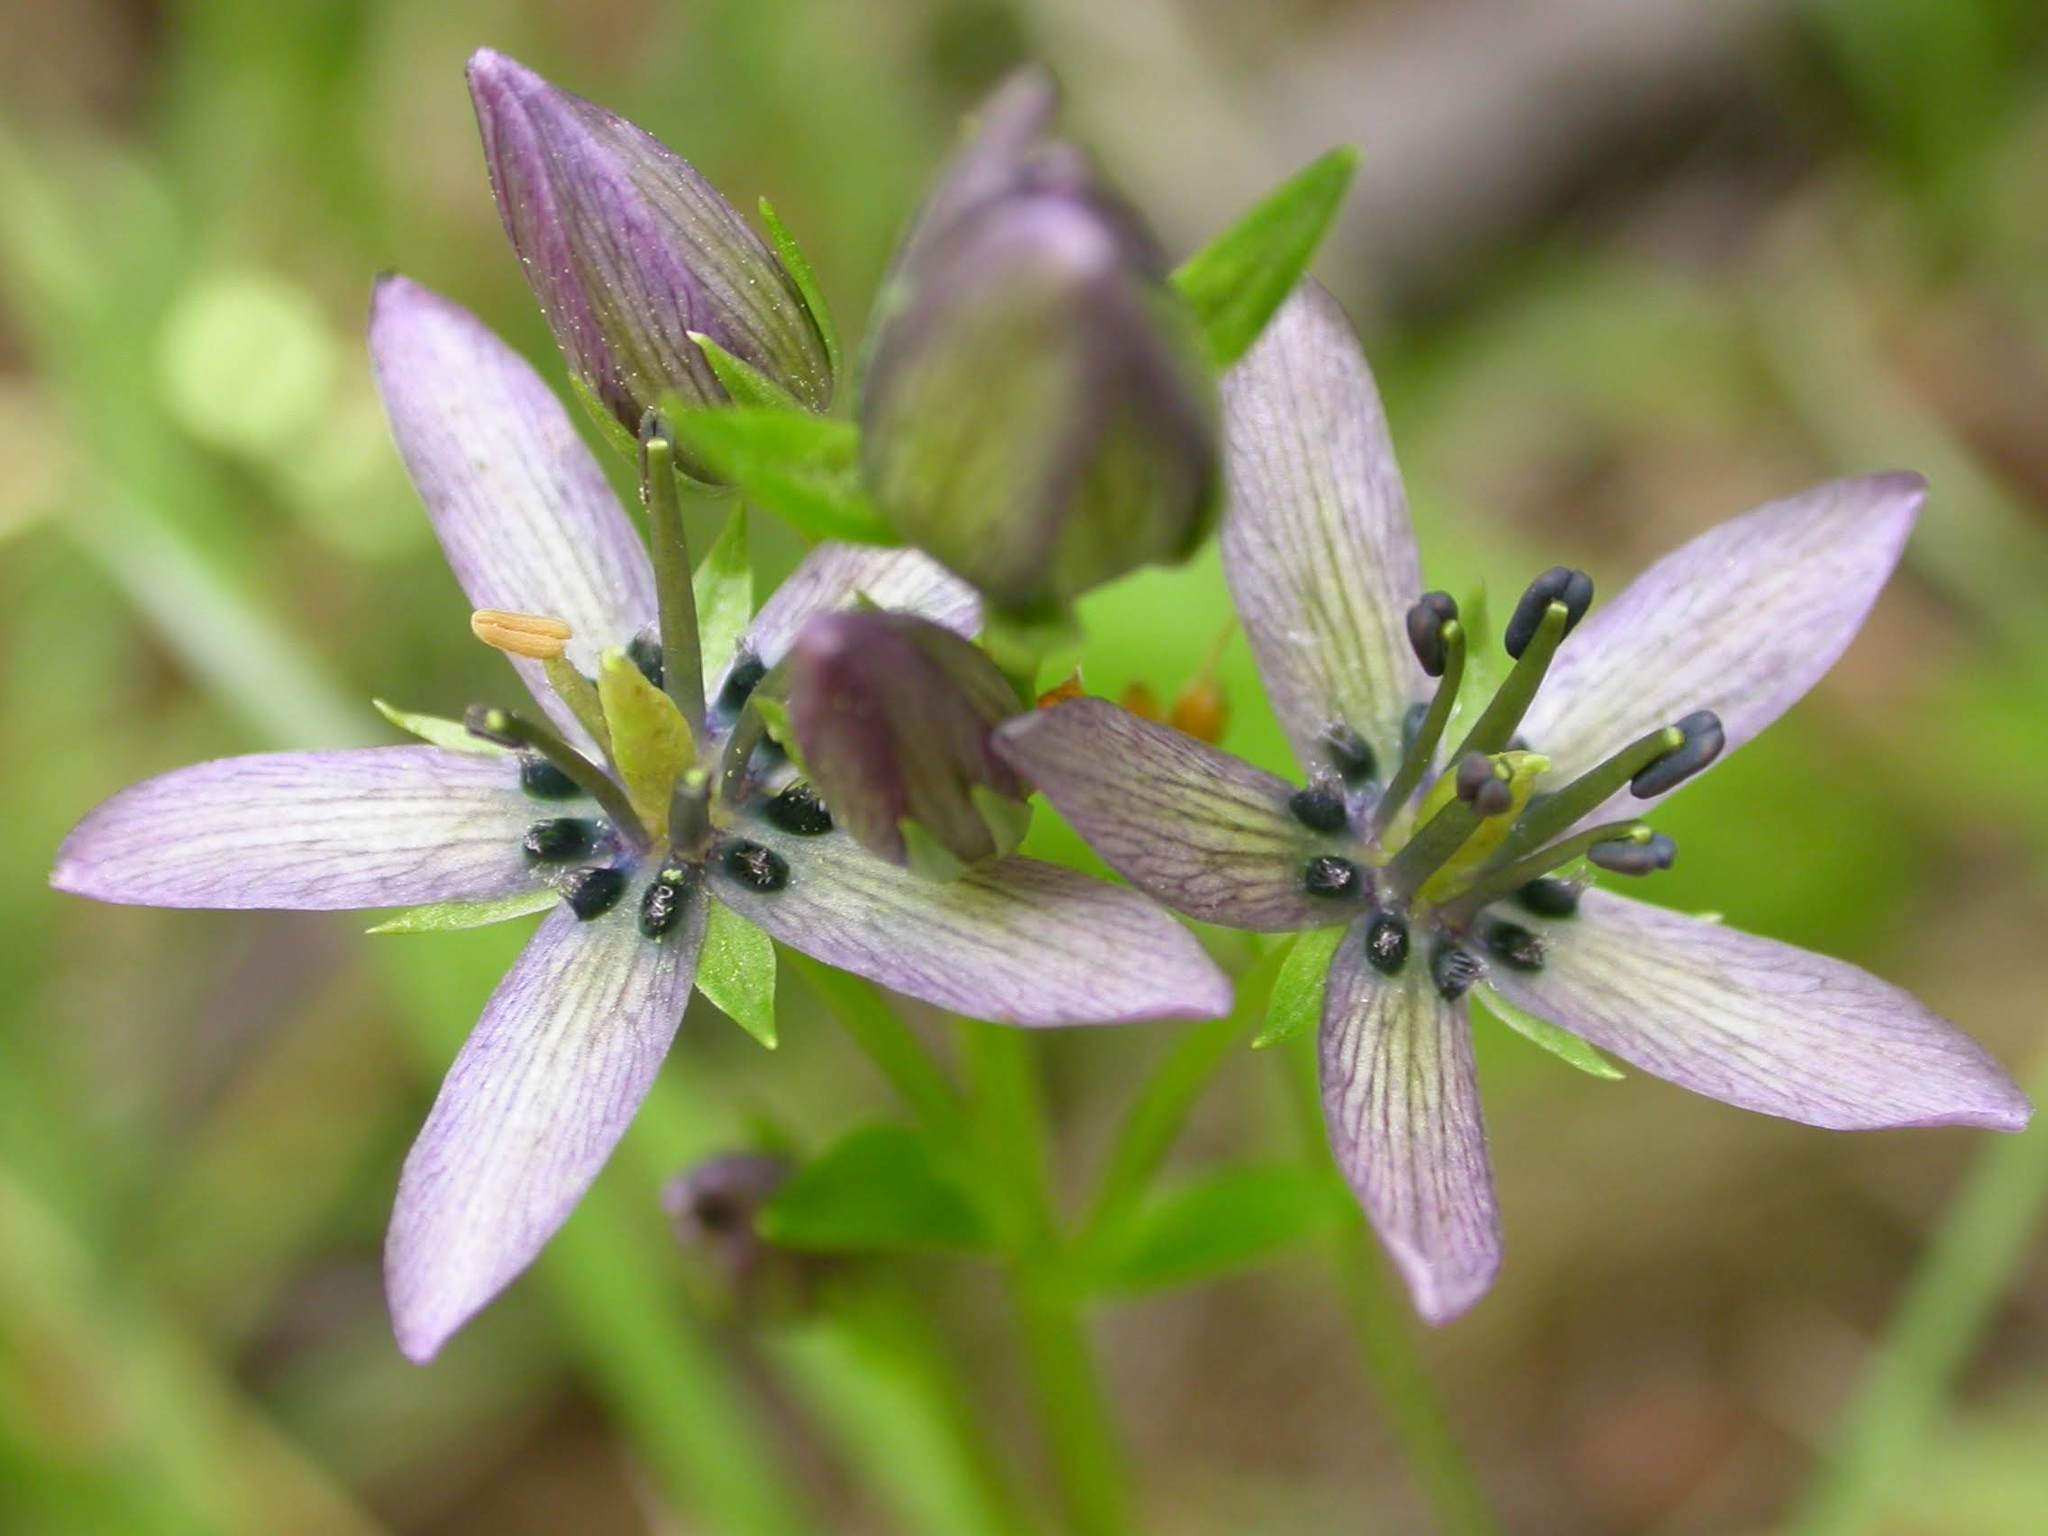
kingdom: Plantae
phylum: Tracheophyta
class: Magnoliopsida
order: Gentianales
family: Gentianaceae
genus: Swertia
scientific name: Swertia perennis
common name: Alpine bog swertia
